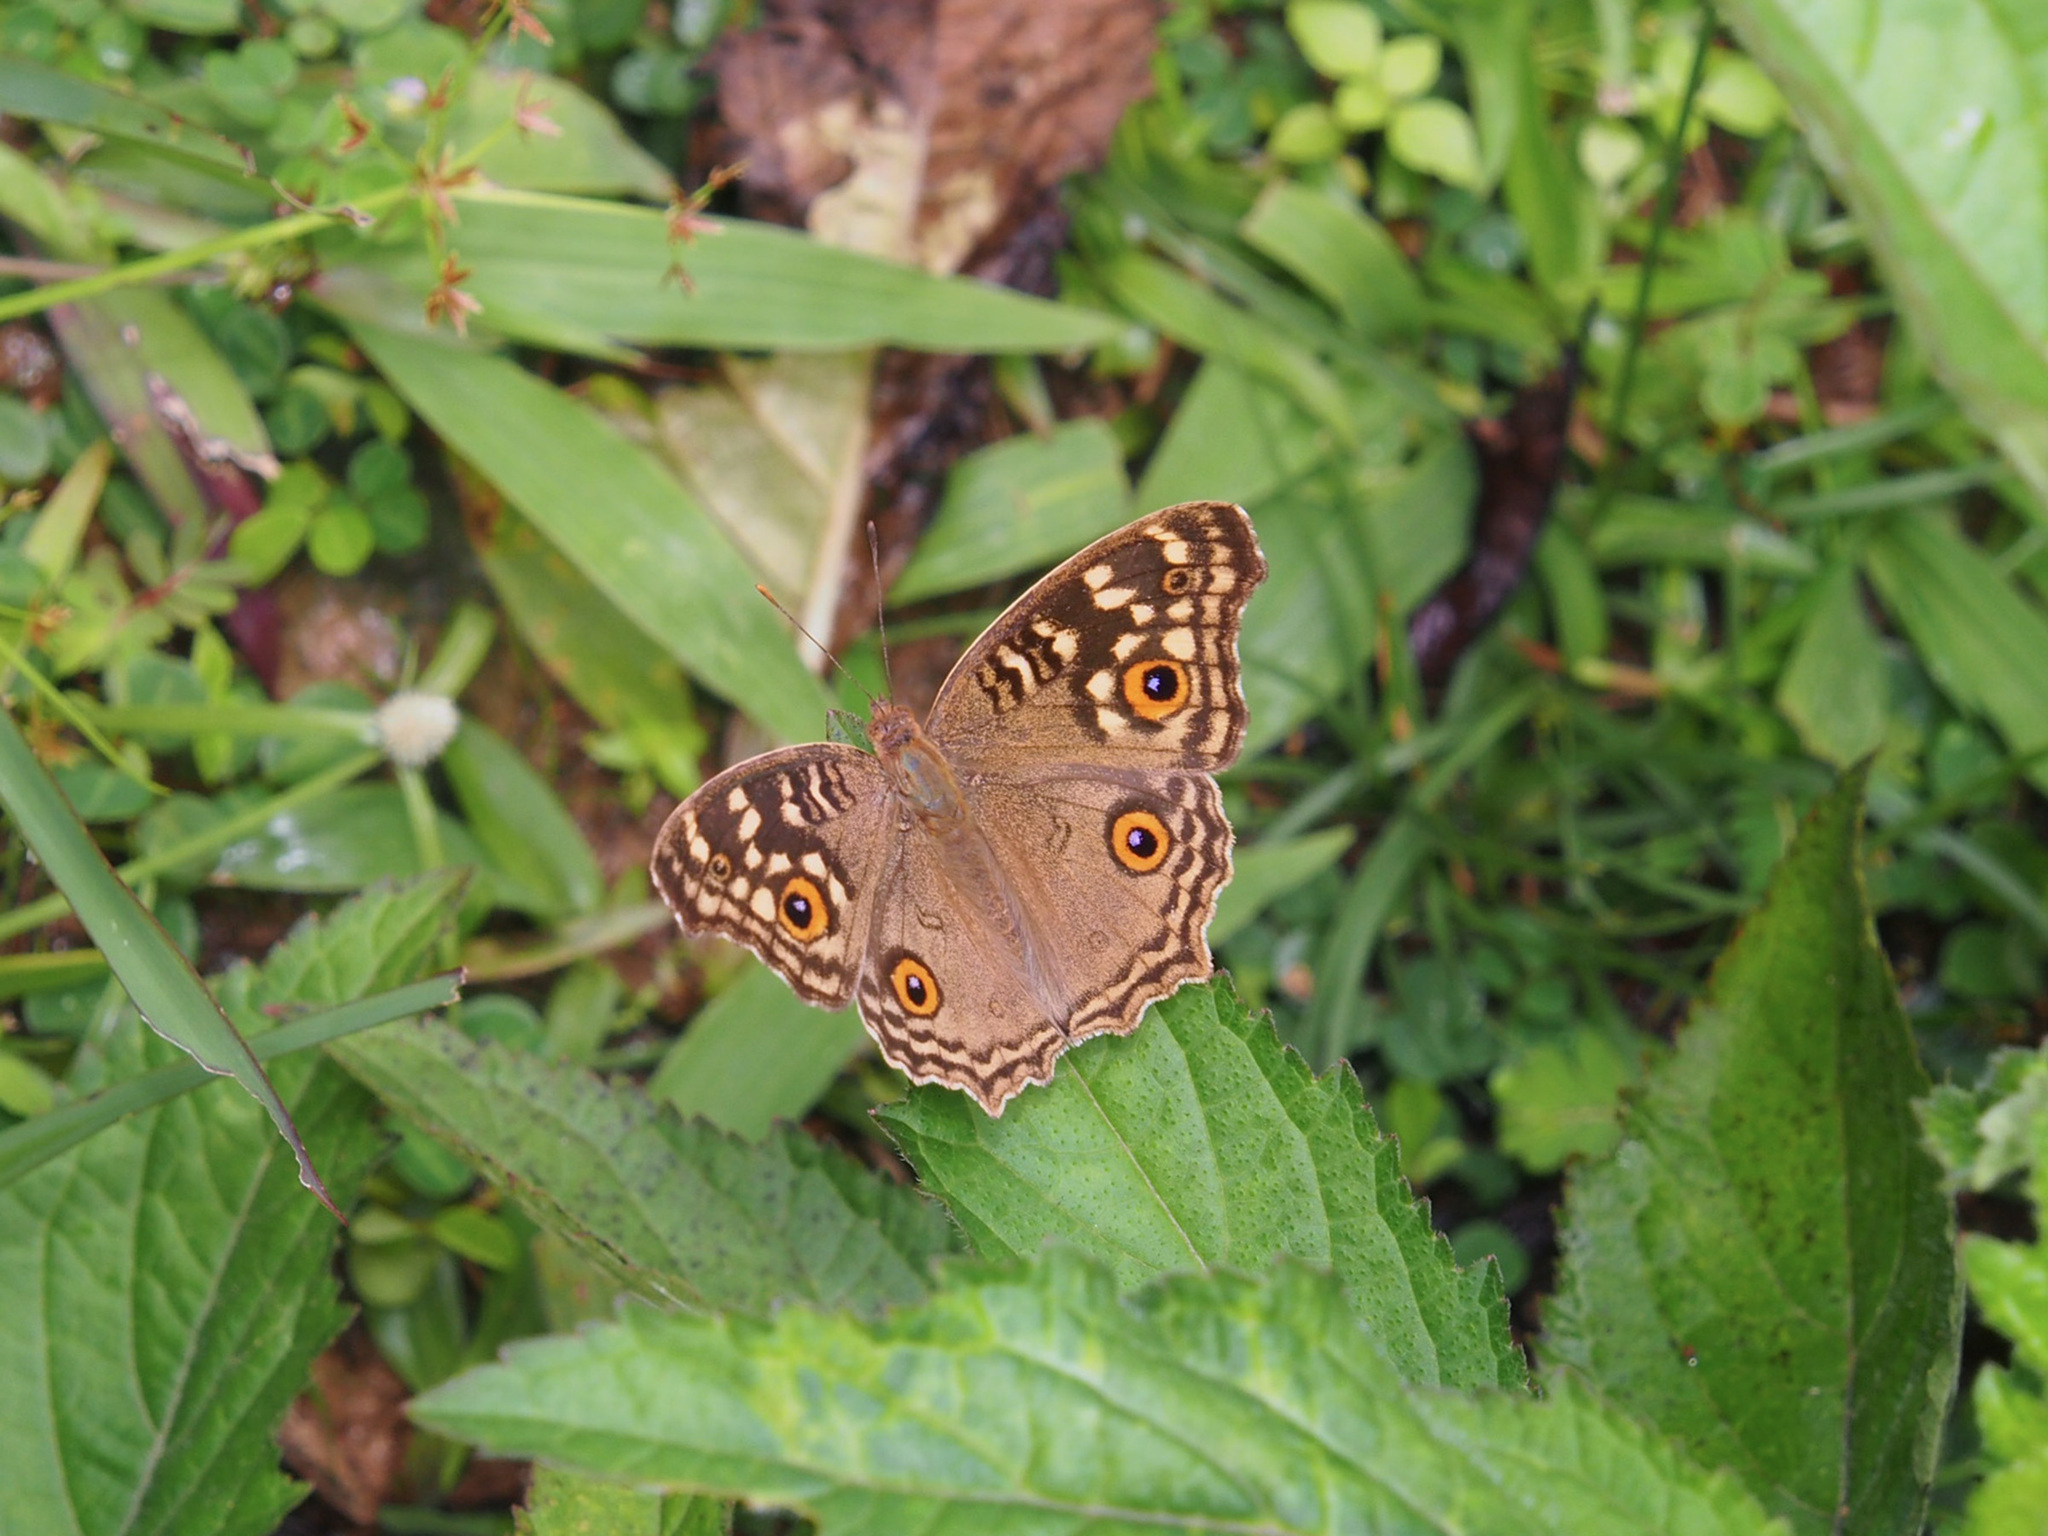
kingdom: Animalia
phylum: Arthropoda
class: Insecta
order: Lepidoptera
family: Nymphalidae
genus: Junonia
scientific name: Junonia lemonias
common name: Lemon pansy
